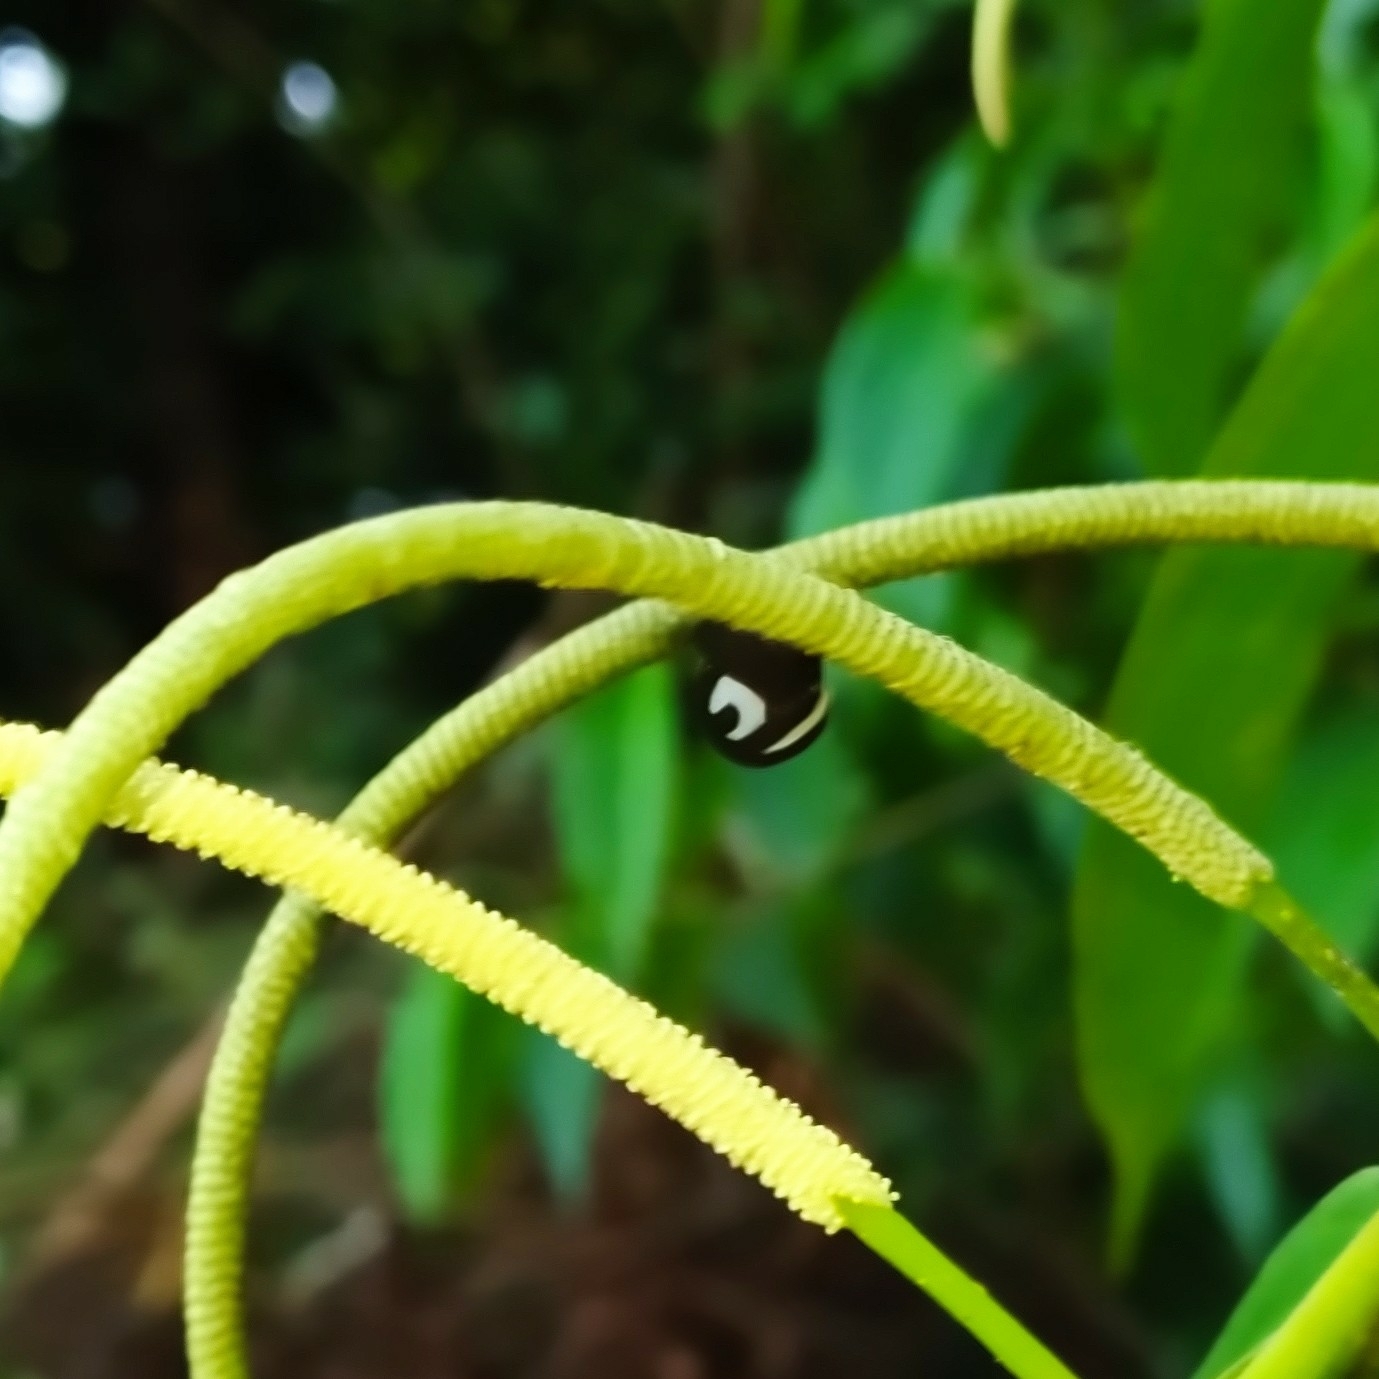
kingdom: Animalia
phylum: Arthropoda
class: Insecta
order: Hemiptera
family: Membracidae
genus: Membracis
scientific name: Membracis foliatafasciata
